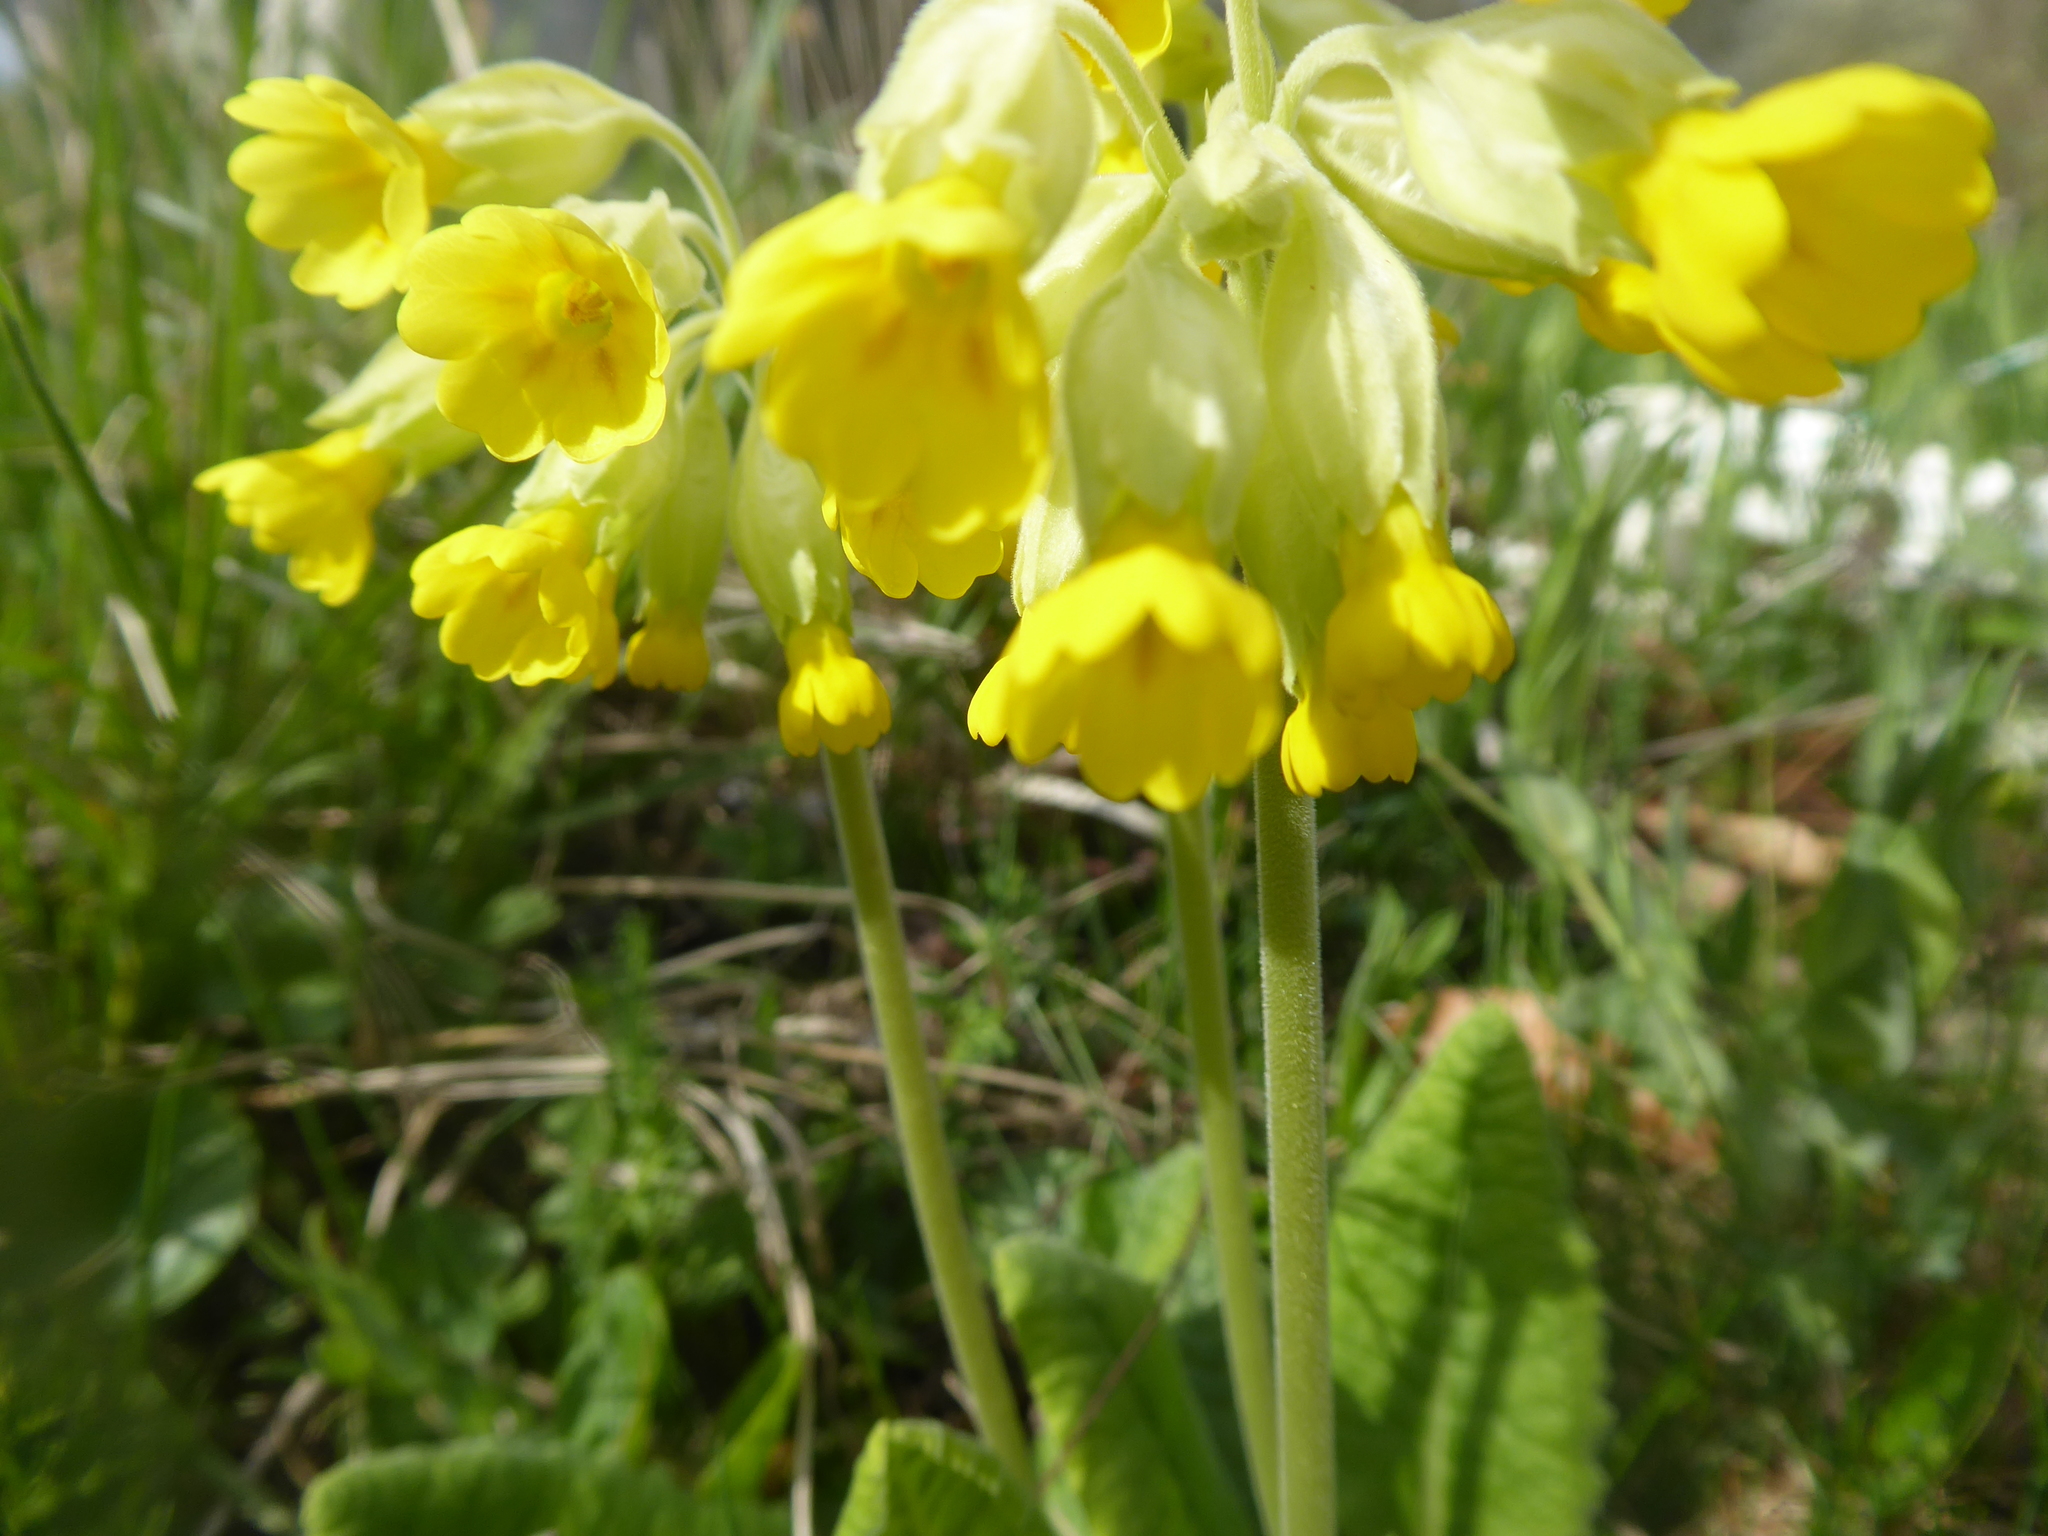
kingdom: Plantae
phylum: Tracheophyta
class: Magnoliopsida
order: Ericales
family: Primulaceae
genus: Primula
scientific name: Primula veris
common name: Cowslip
